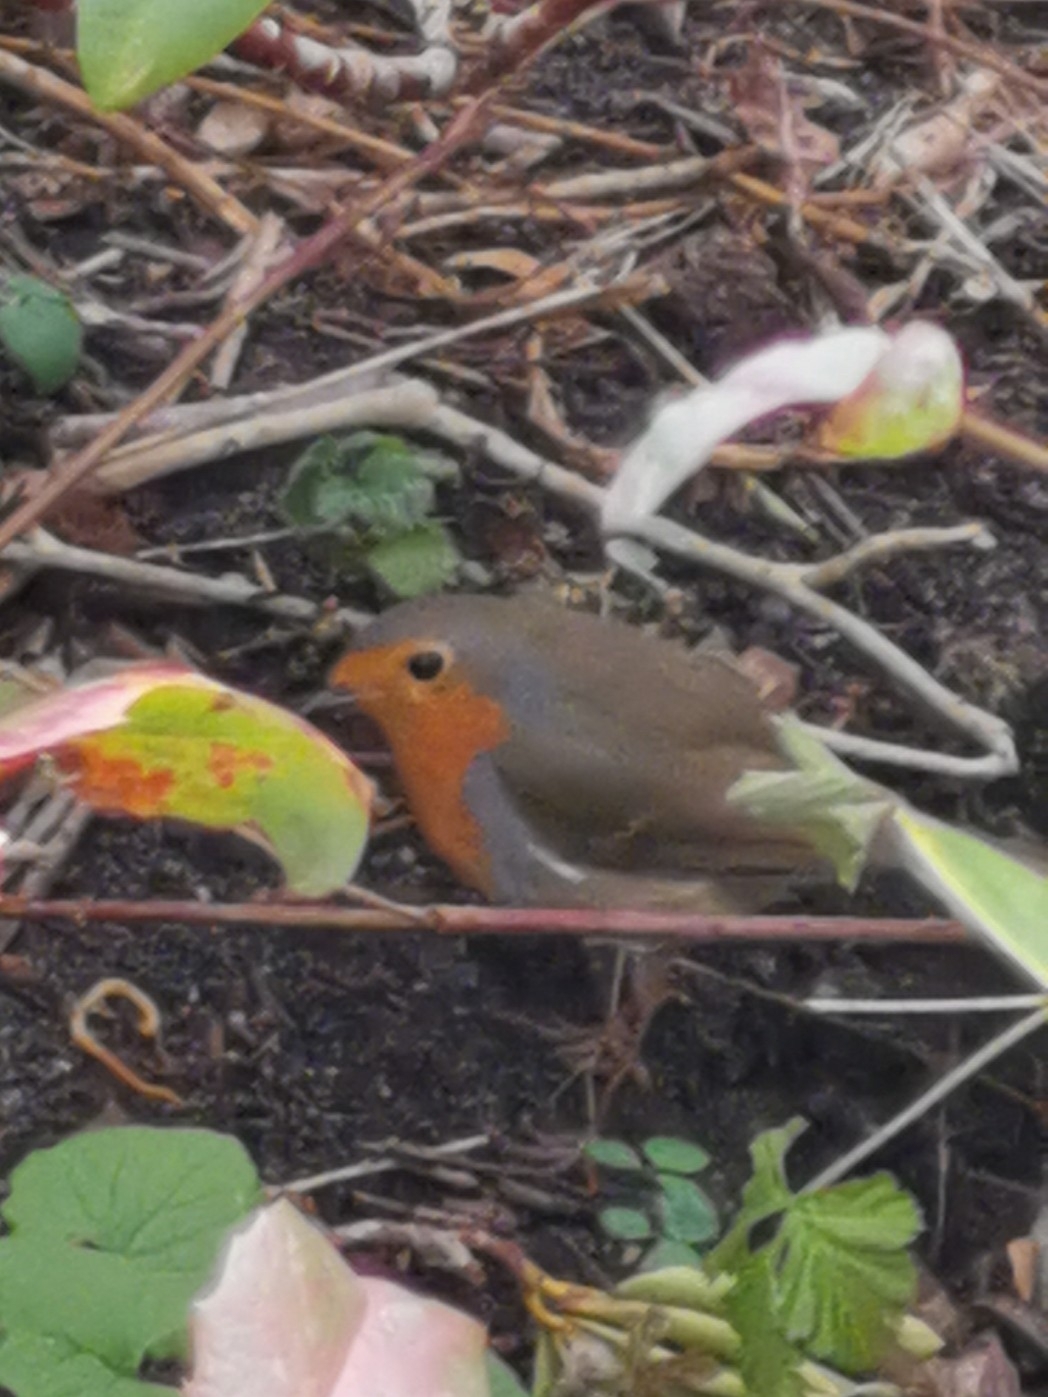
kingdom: Animalia
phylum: Chordata
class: Aves
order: Passeriformes
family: Muscicapidae
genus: Erithacus
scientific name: Erithacus rubecula
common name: European robin
